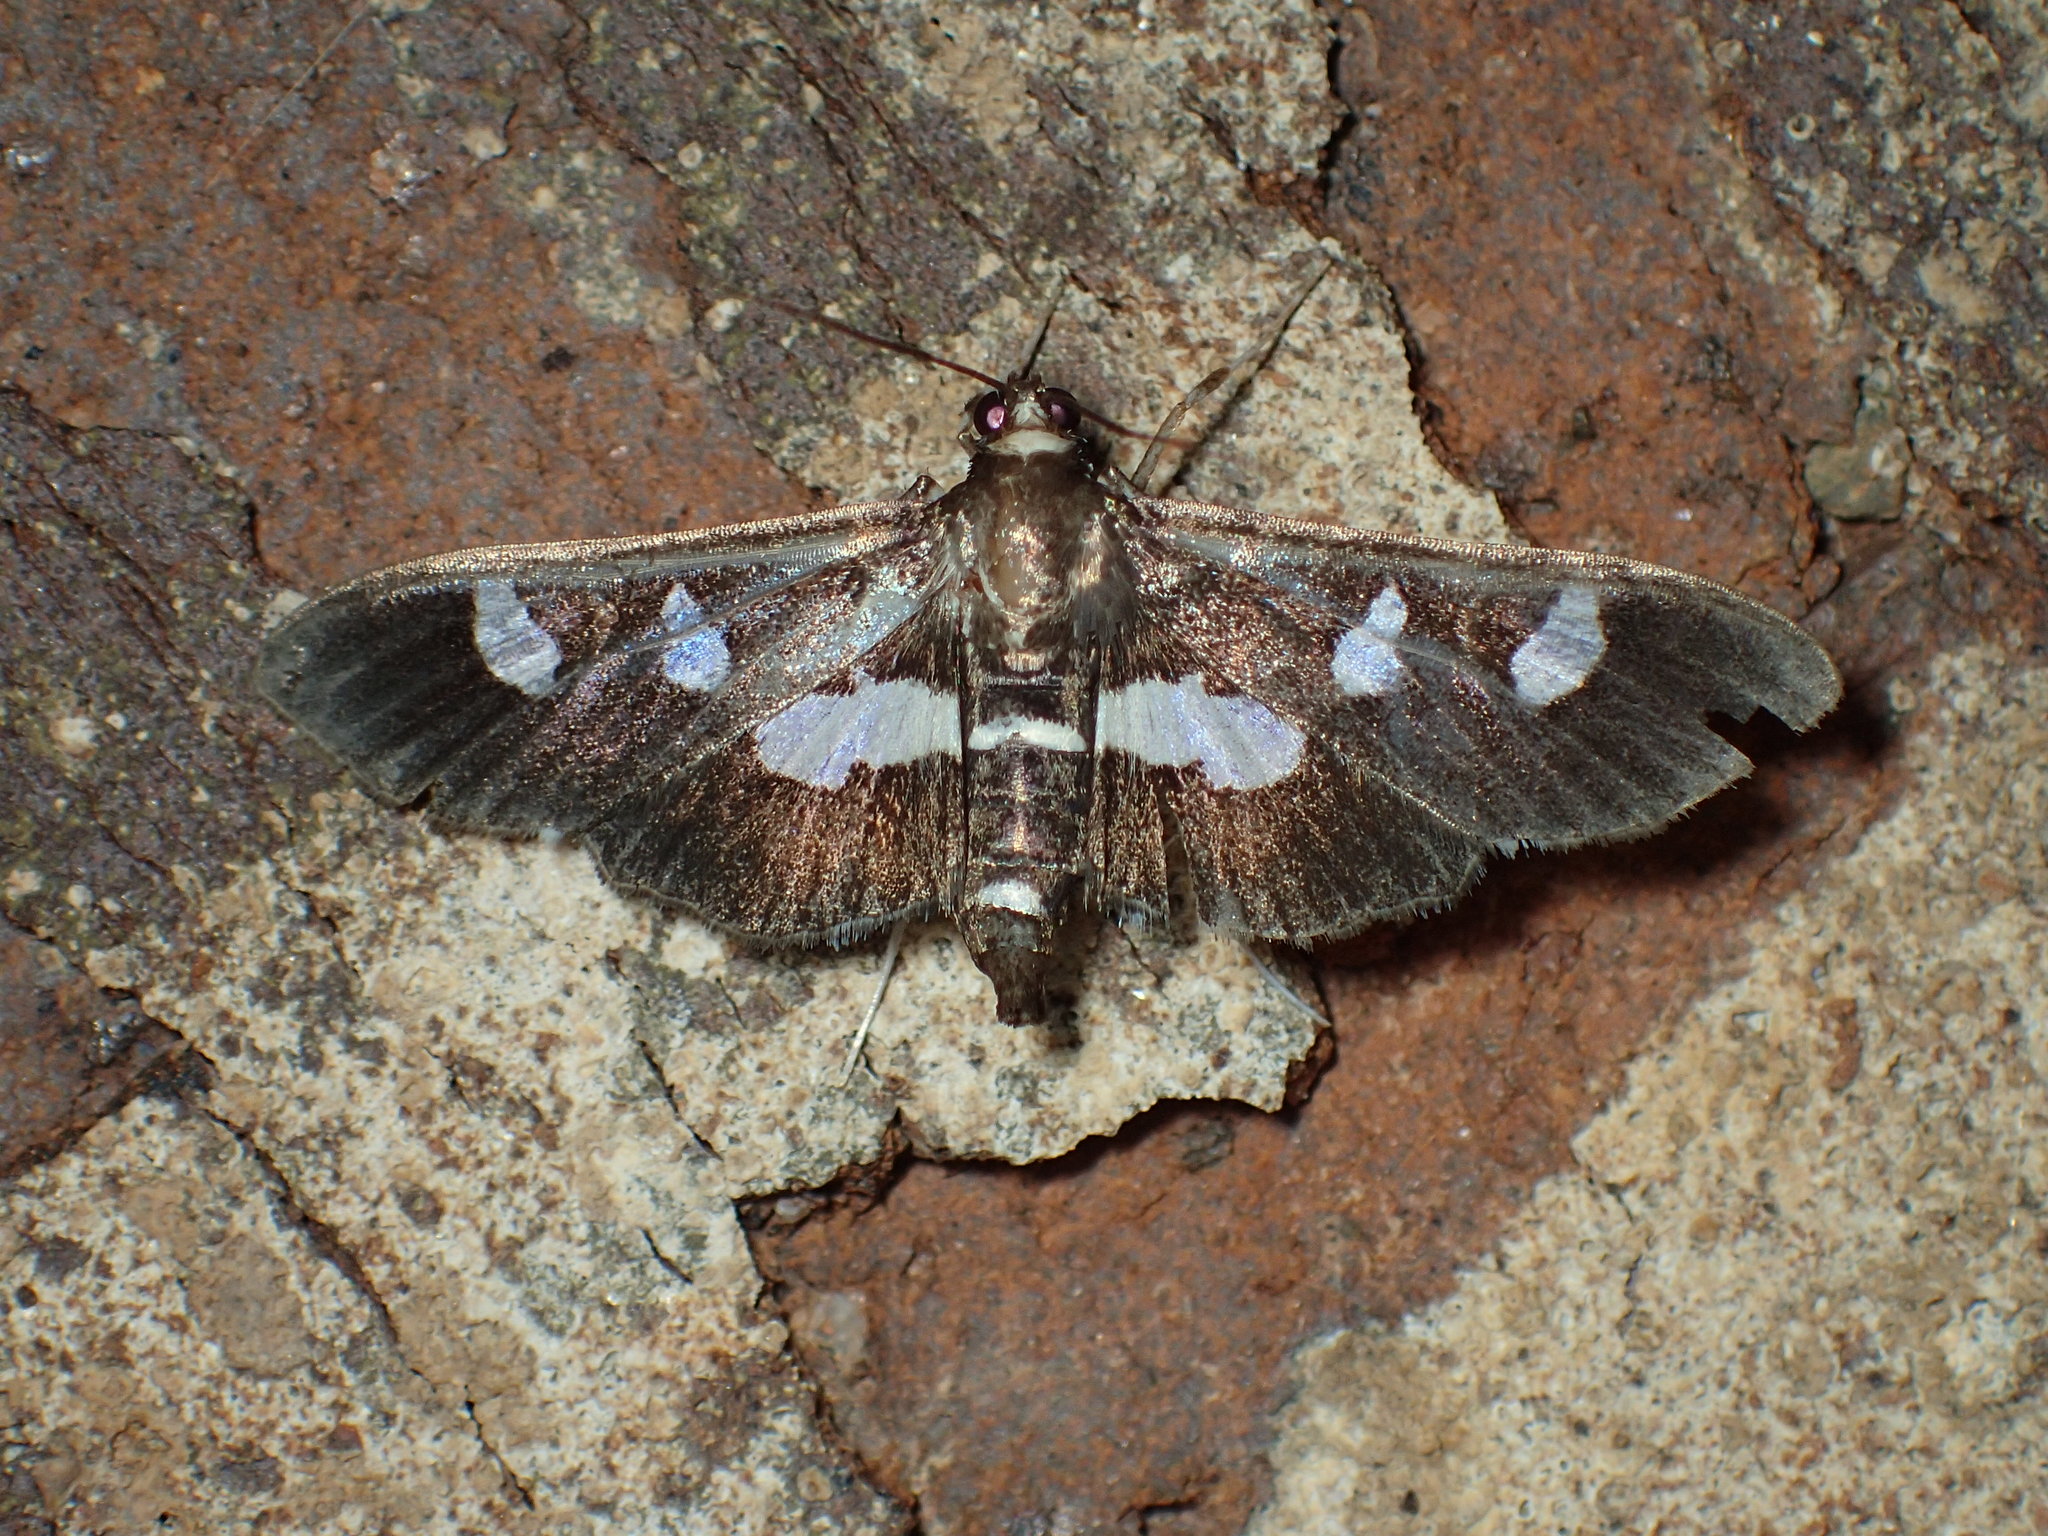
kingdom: Animalia
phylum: Arthropoda
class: Insecta
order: Lepidoptera
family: Crambidae
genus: Desmia
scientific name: Desmia
